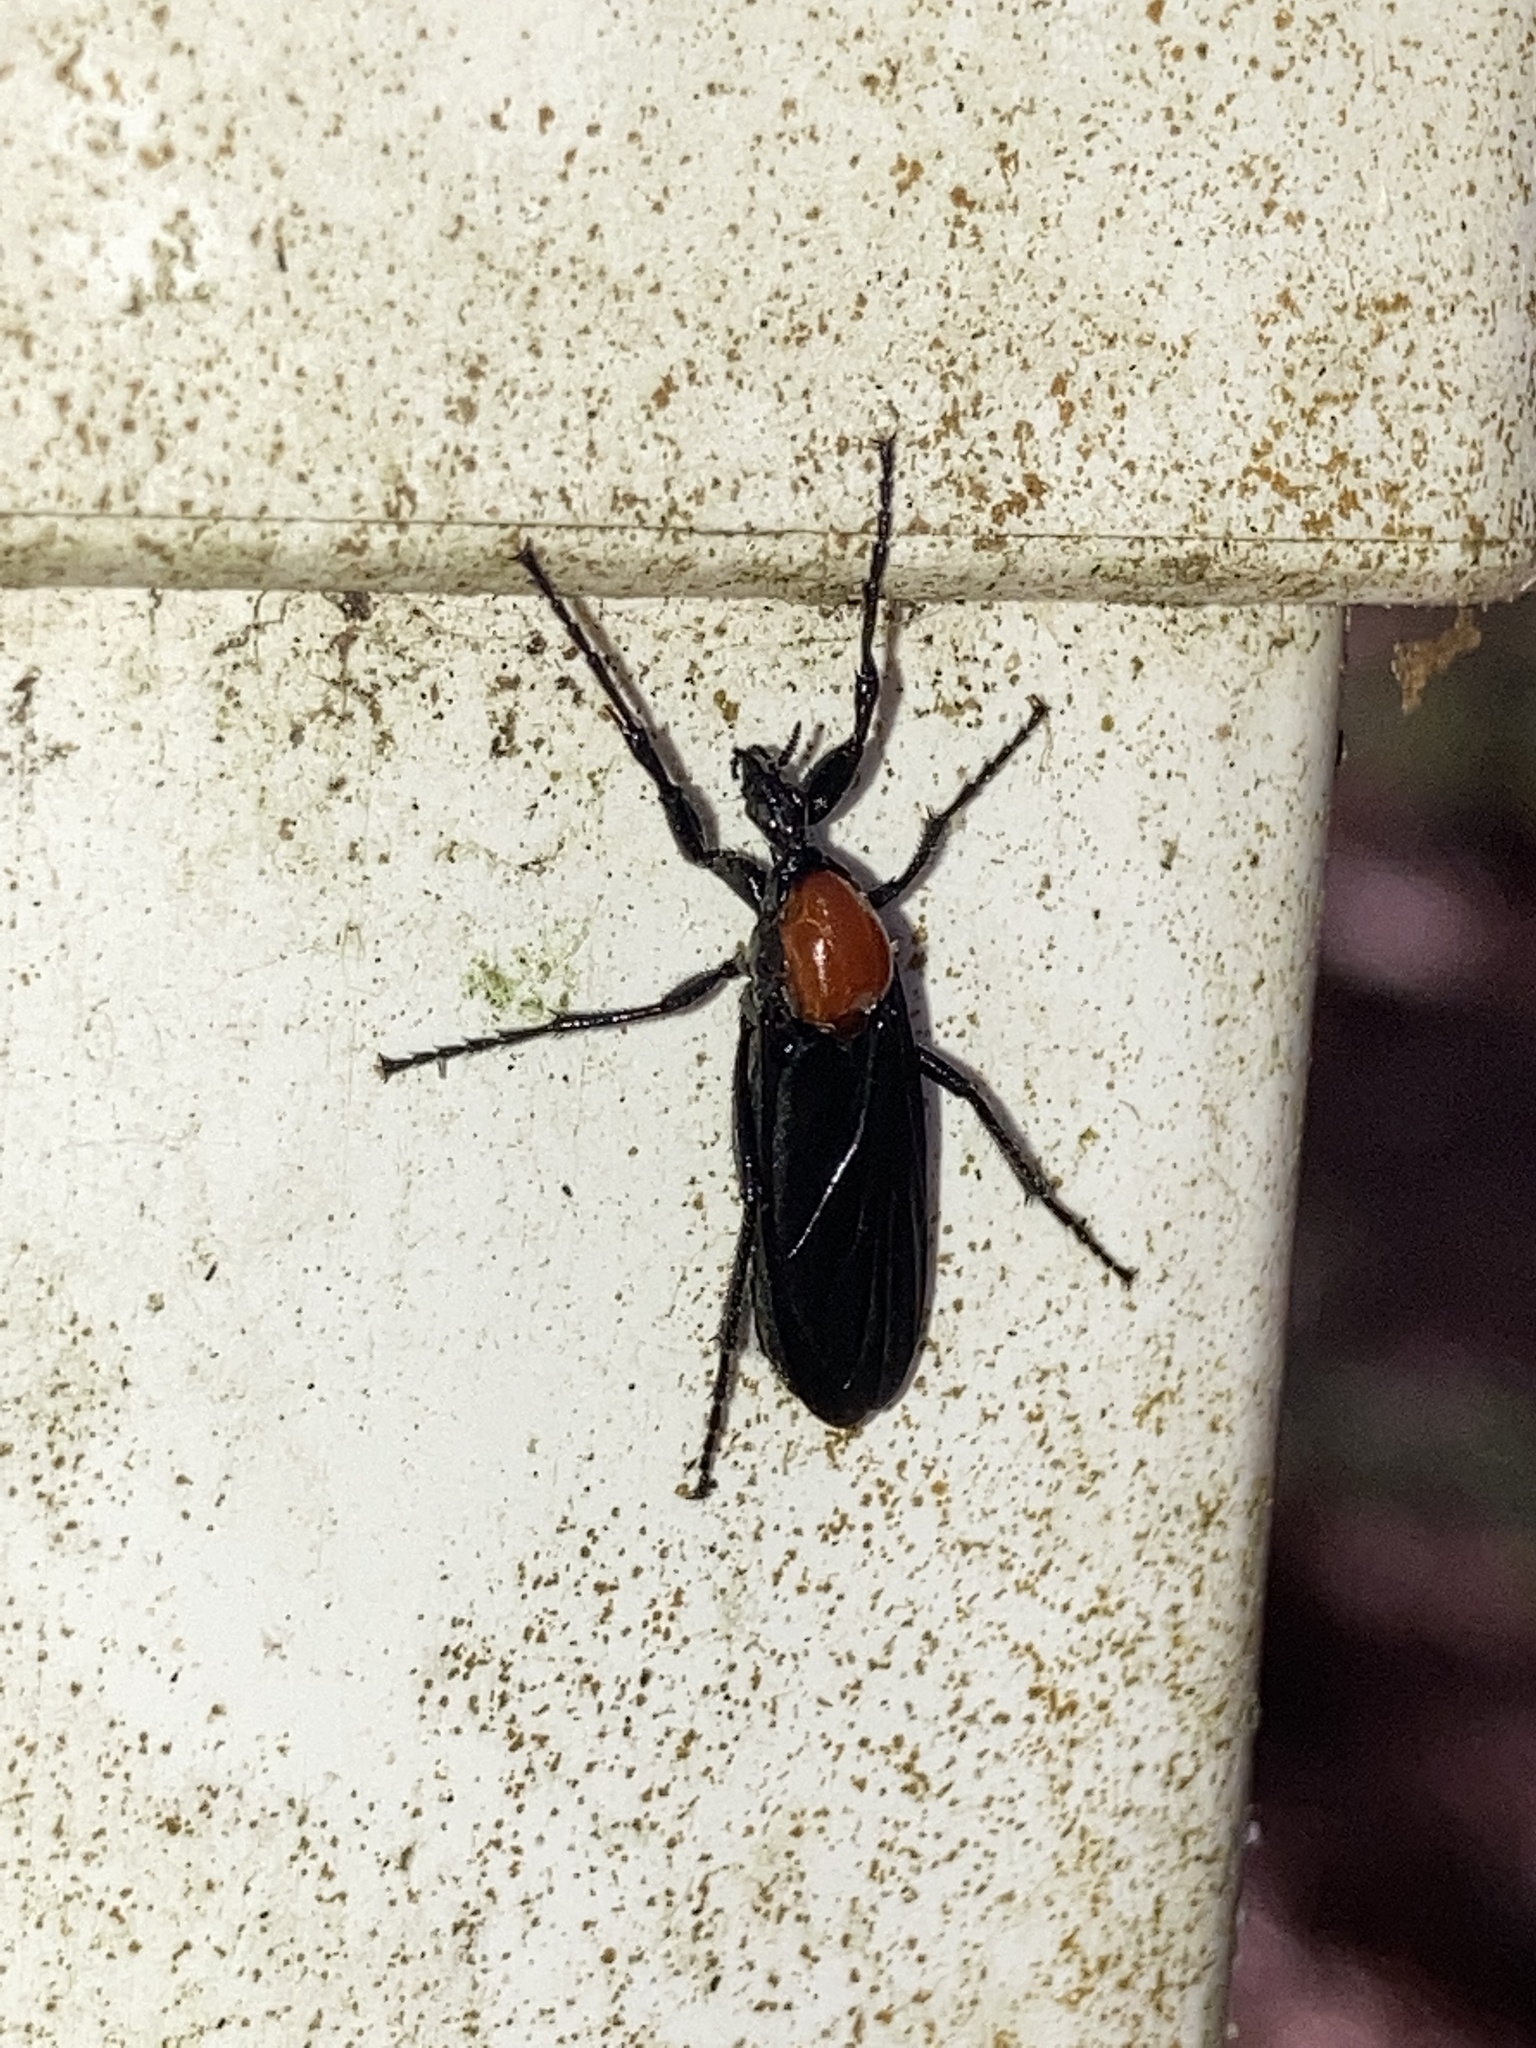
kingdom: Animalia
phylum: Arthropoda
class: Insecta
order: Diptera
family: Bibionidae
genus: Bibio
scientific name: Bibio superfluus
